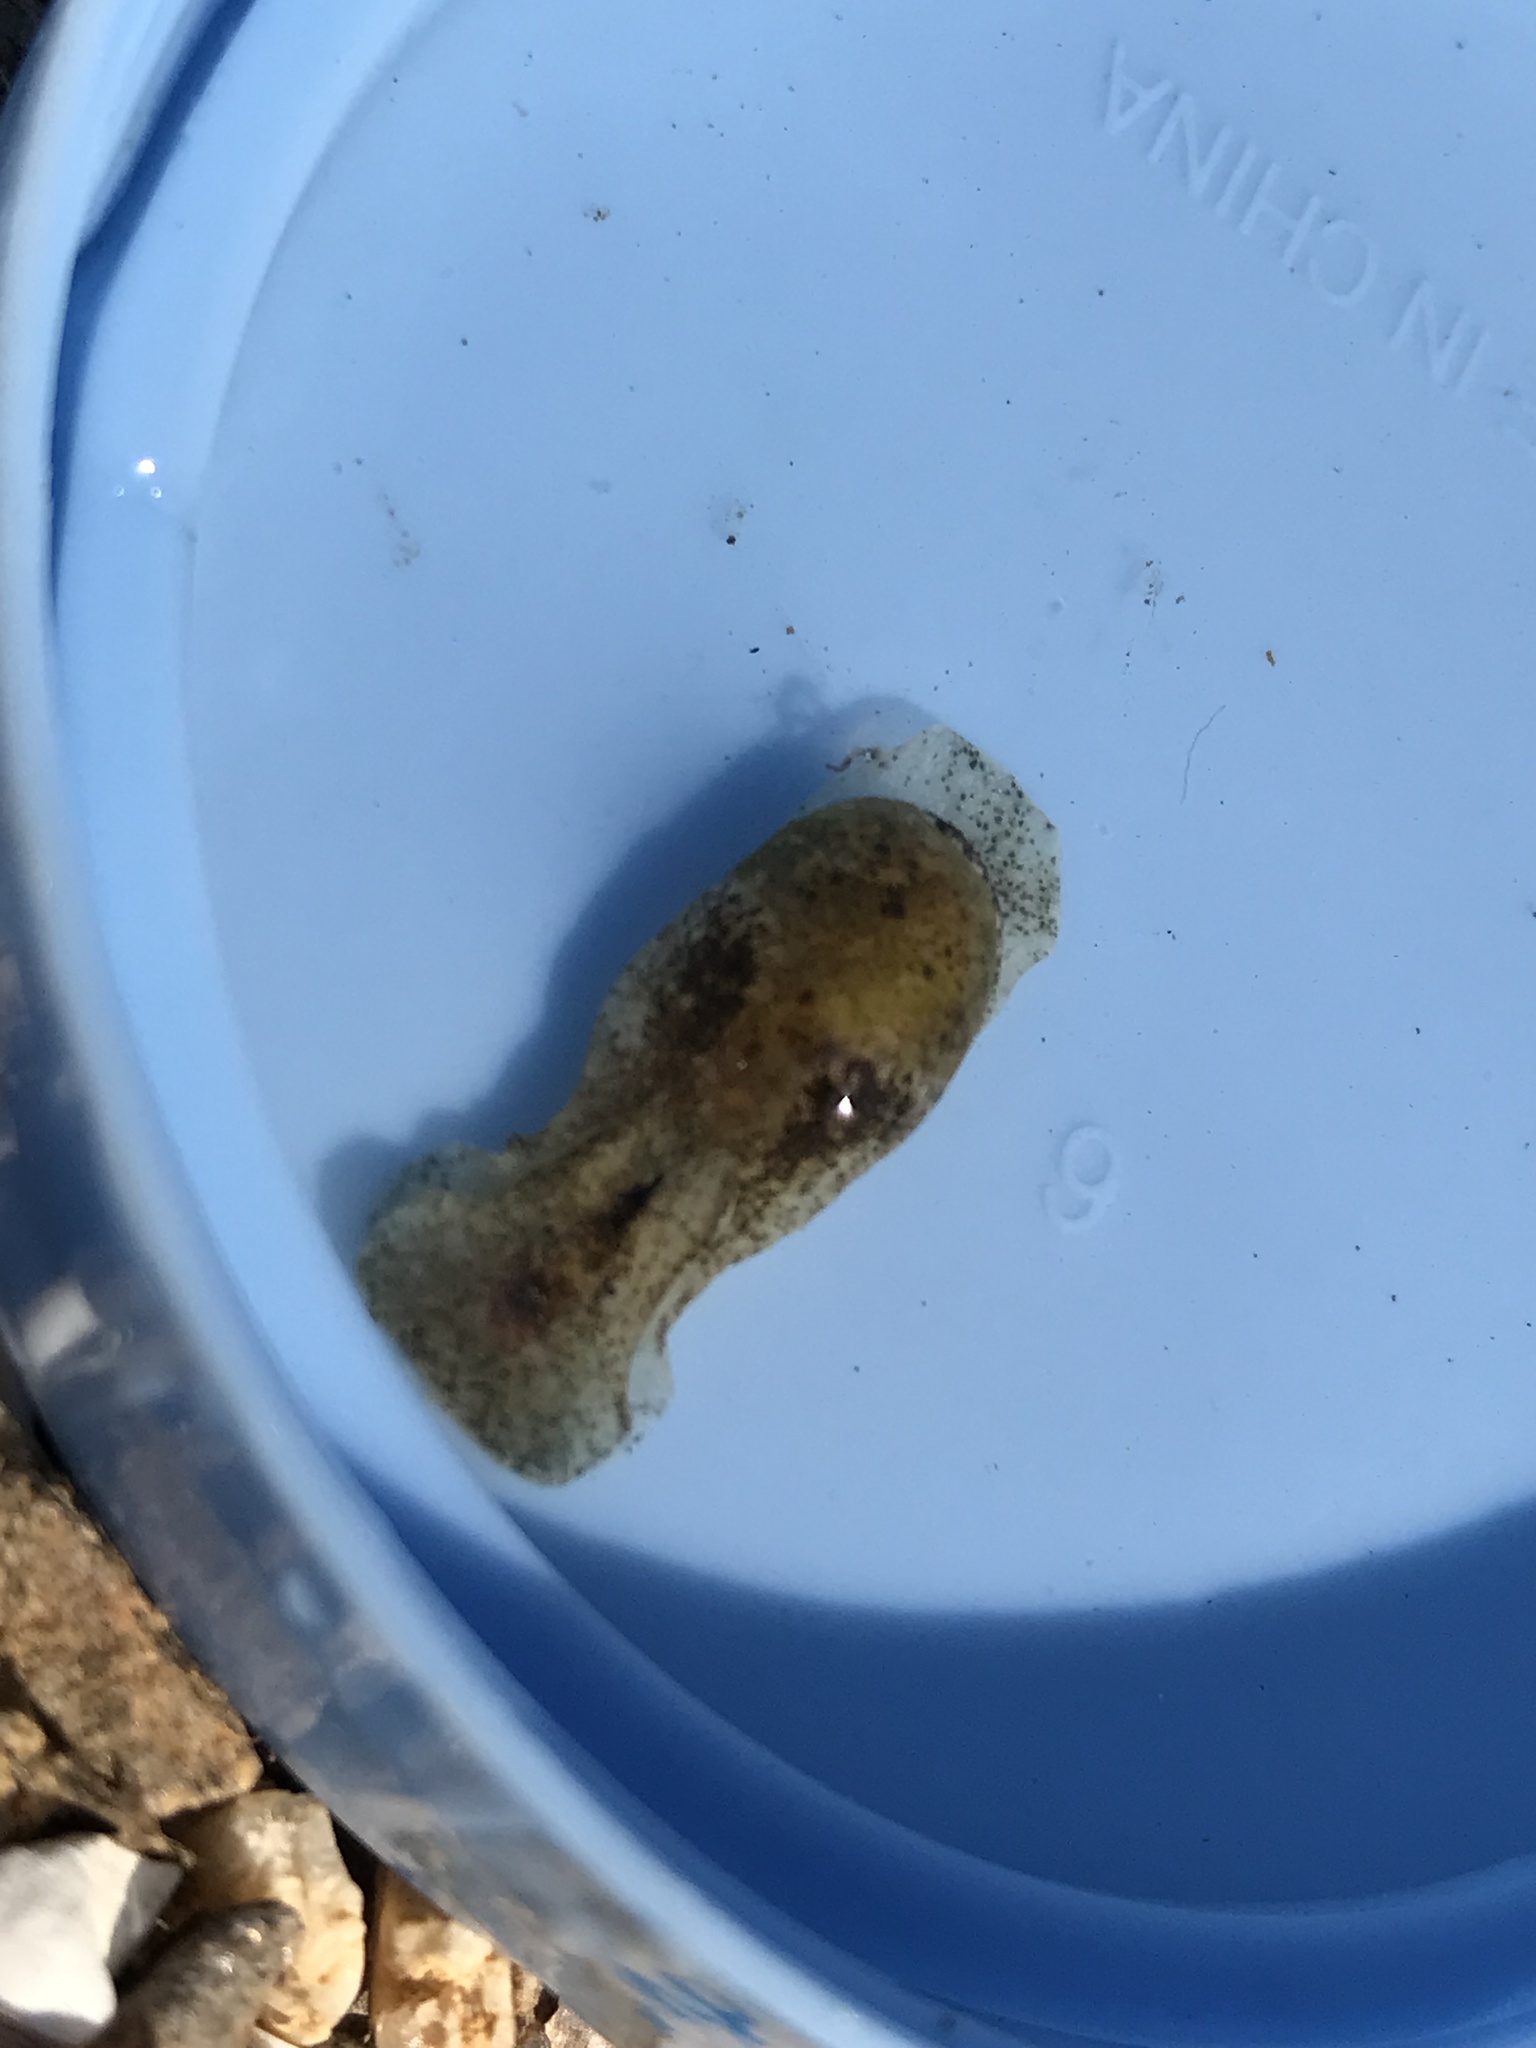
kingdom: Animalia
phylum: Mollusca
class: Gastropoda
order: Cephalaspidea
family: Haminoeidae
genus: Haloa
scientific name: Haloa japonica
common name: Japanese bubble snail
